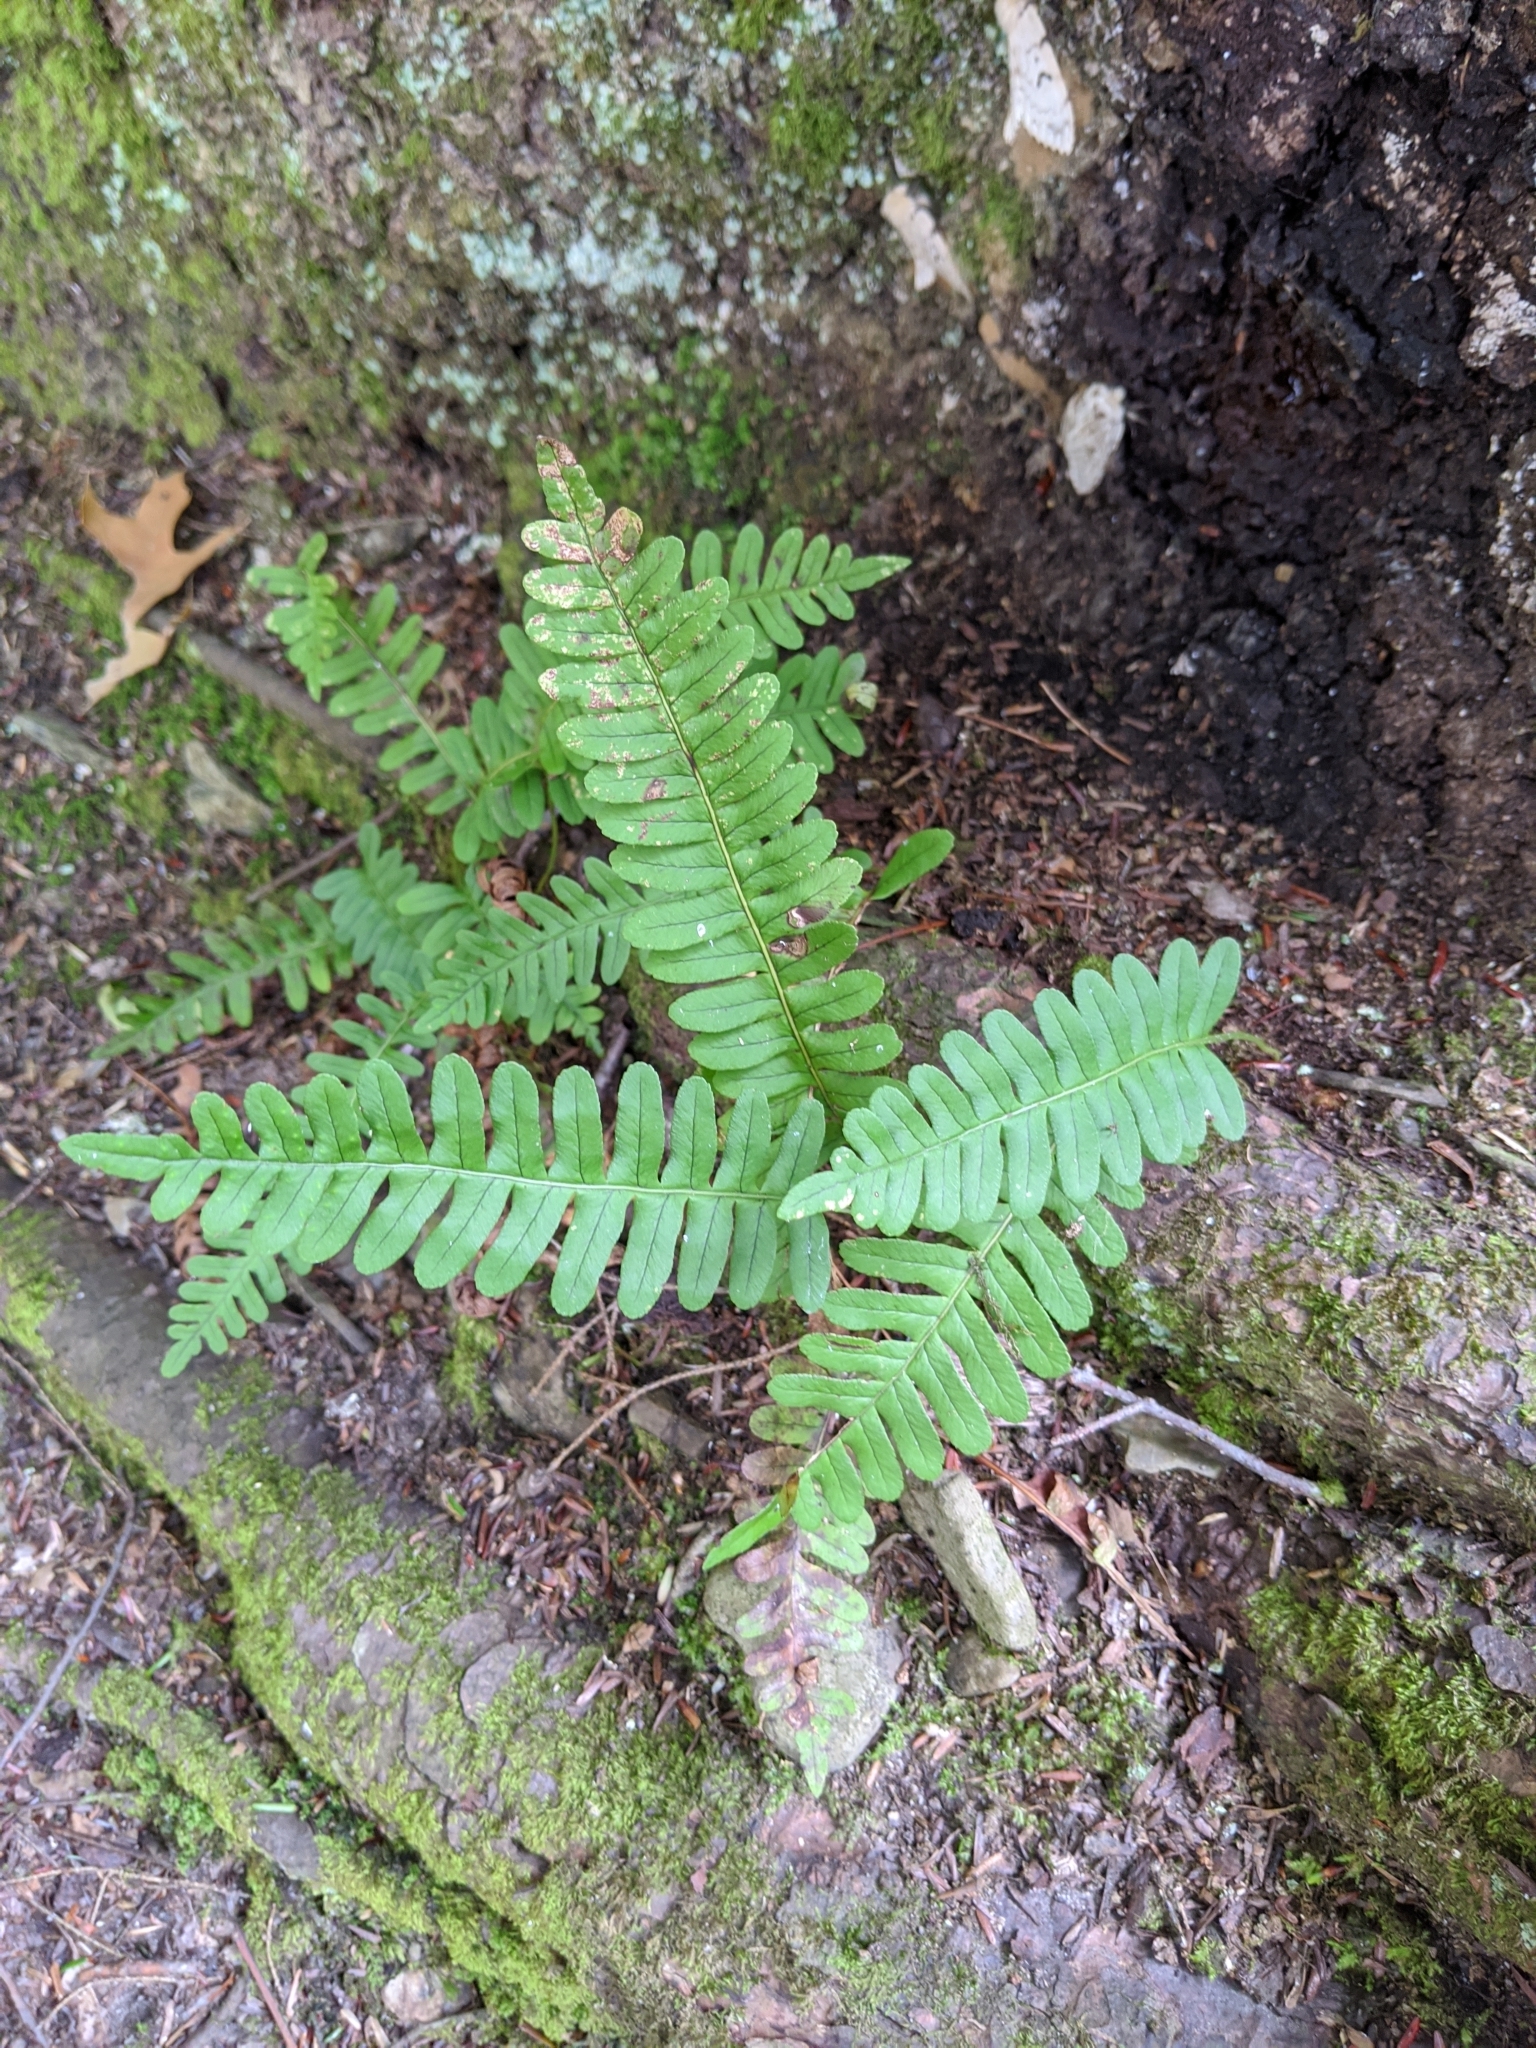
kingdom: Plantae
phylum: Tracheophyta
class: Polypodiopsida
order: Polypodiales
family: Polypodiaceae
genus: Polypodium
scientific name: Polypodium virginianum
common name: American wall fern
